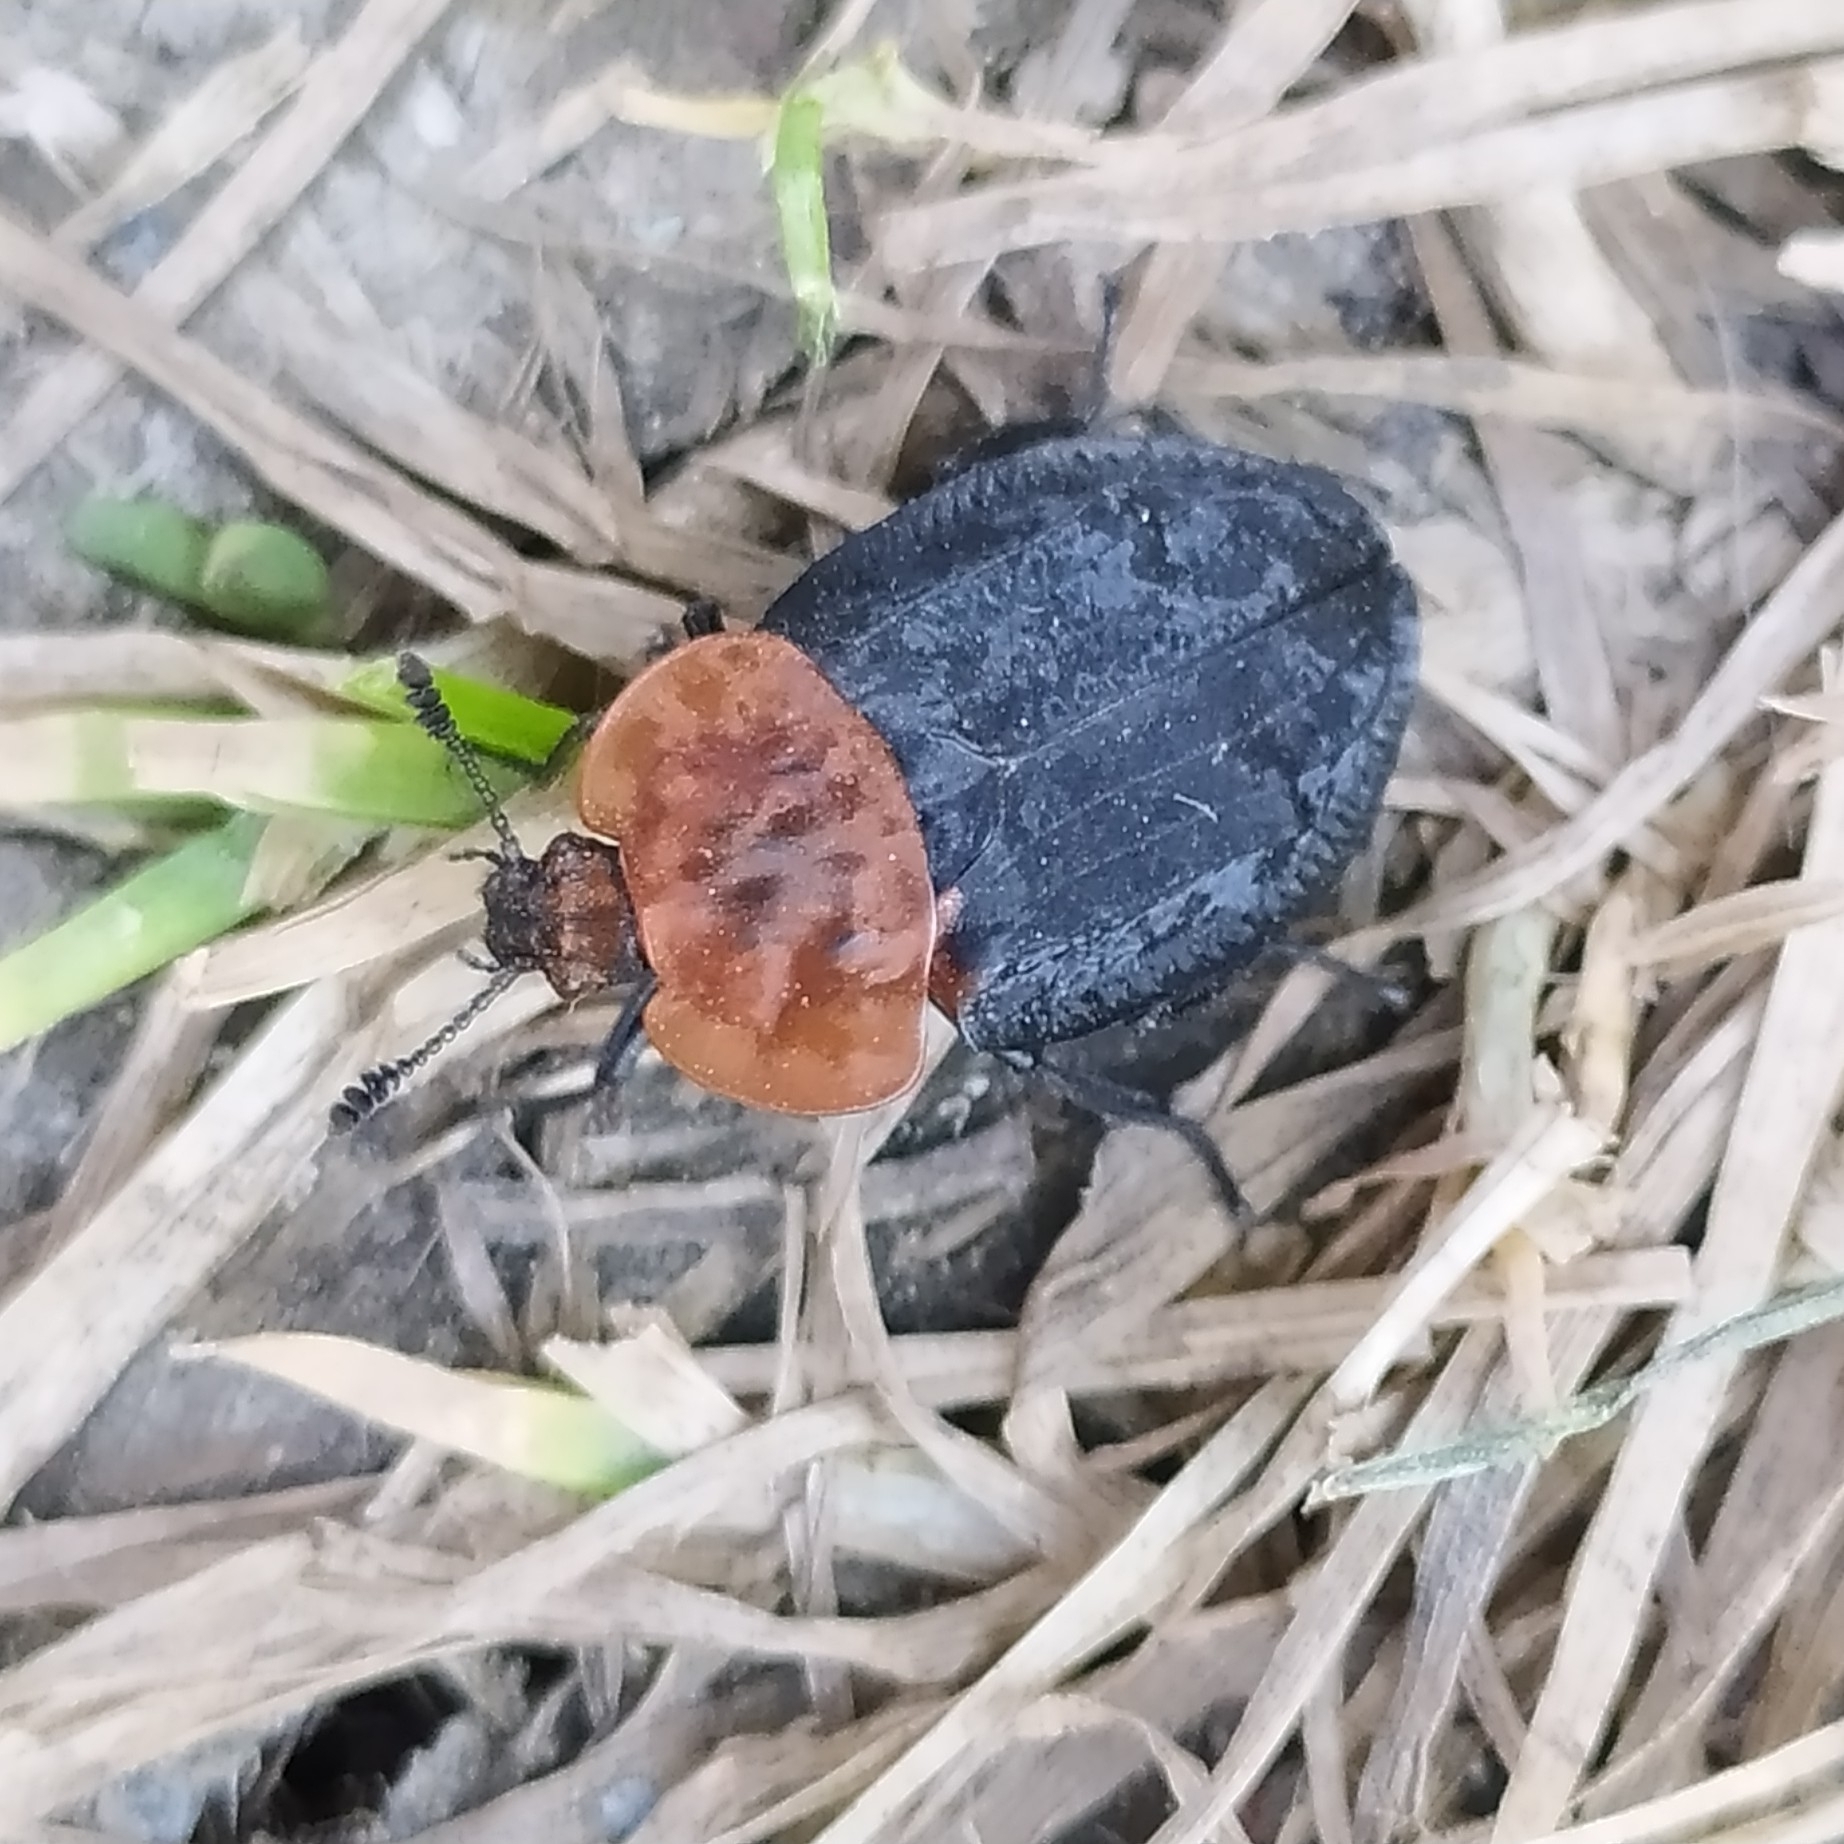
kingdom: Animalia
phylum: Arthropoda
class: Insecta
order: Coleoptera
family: Staphylinidae
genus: Oiceoptoma
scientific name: Oiceoptoma thoracicum
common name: Red-breasted carrion beetle
